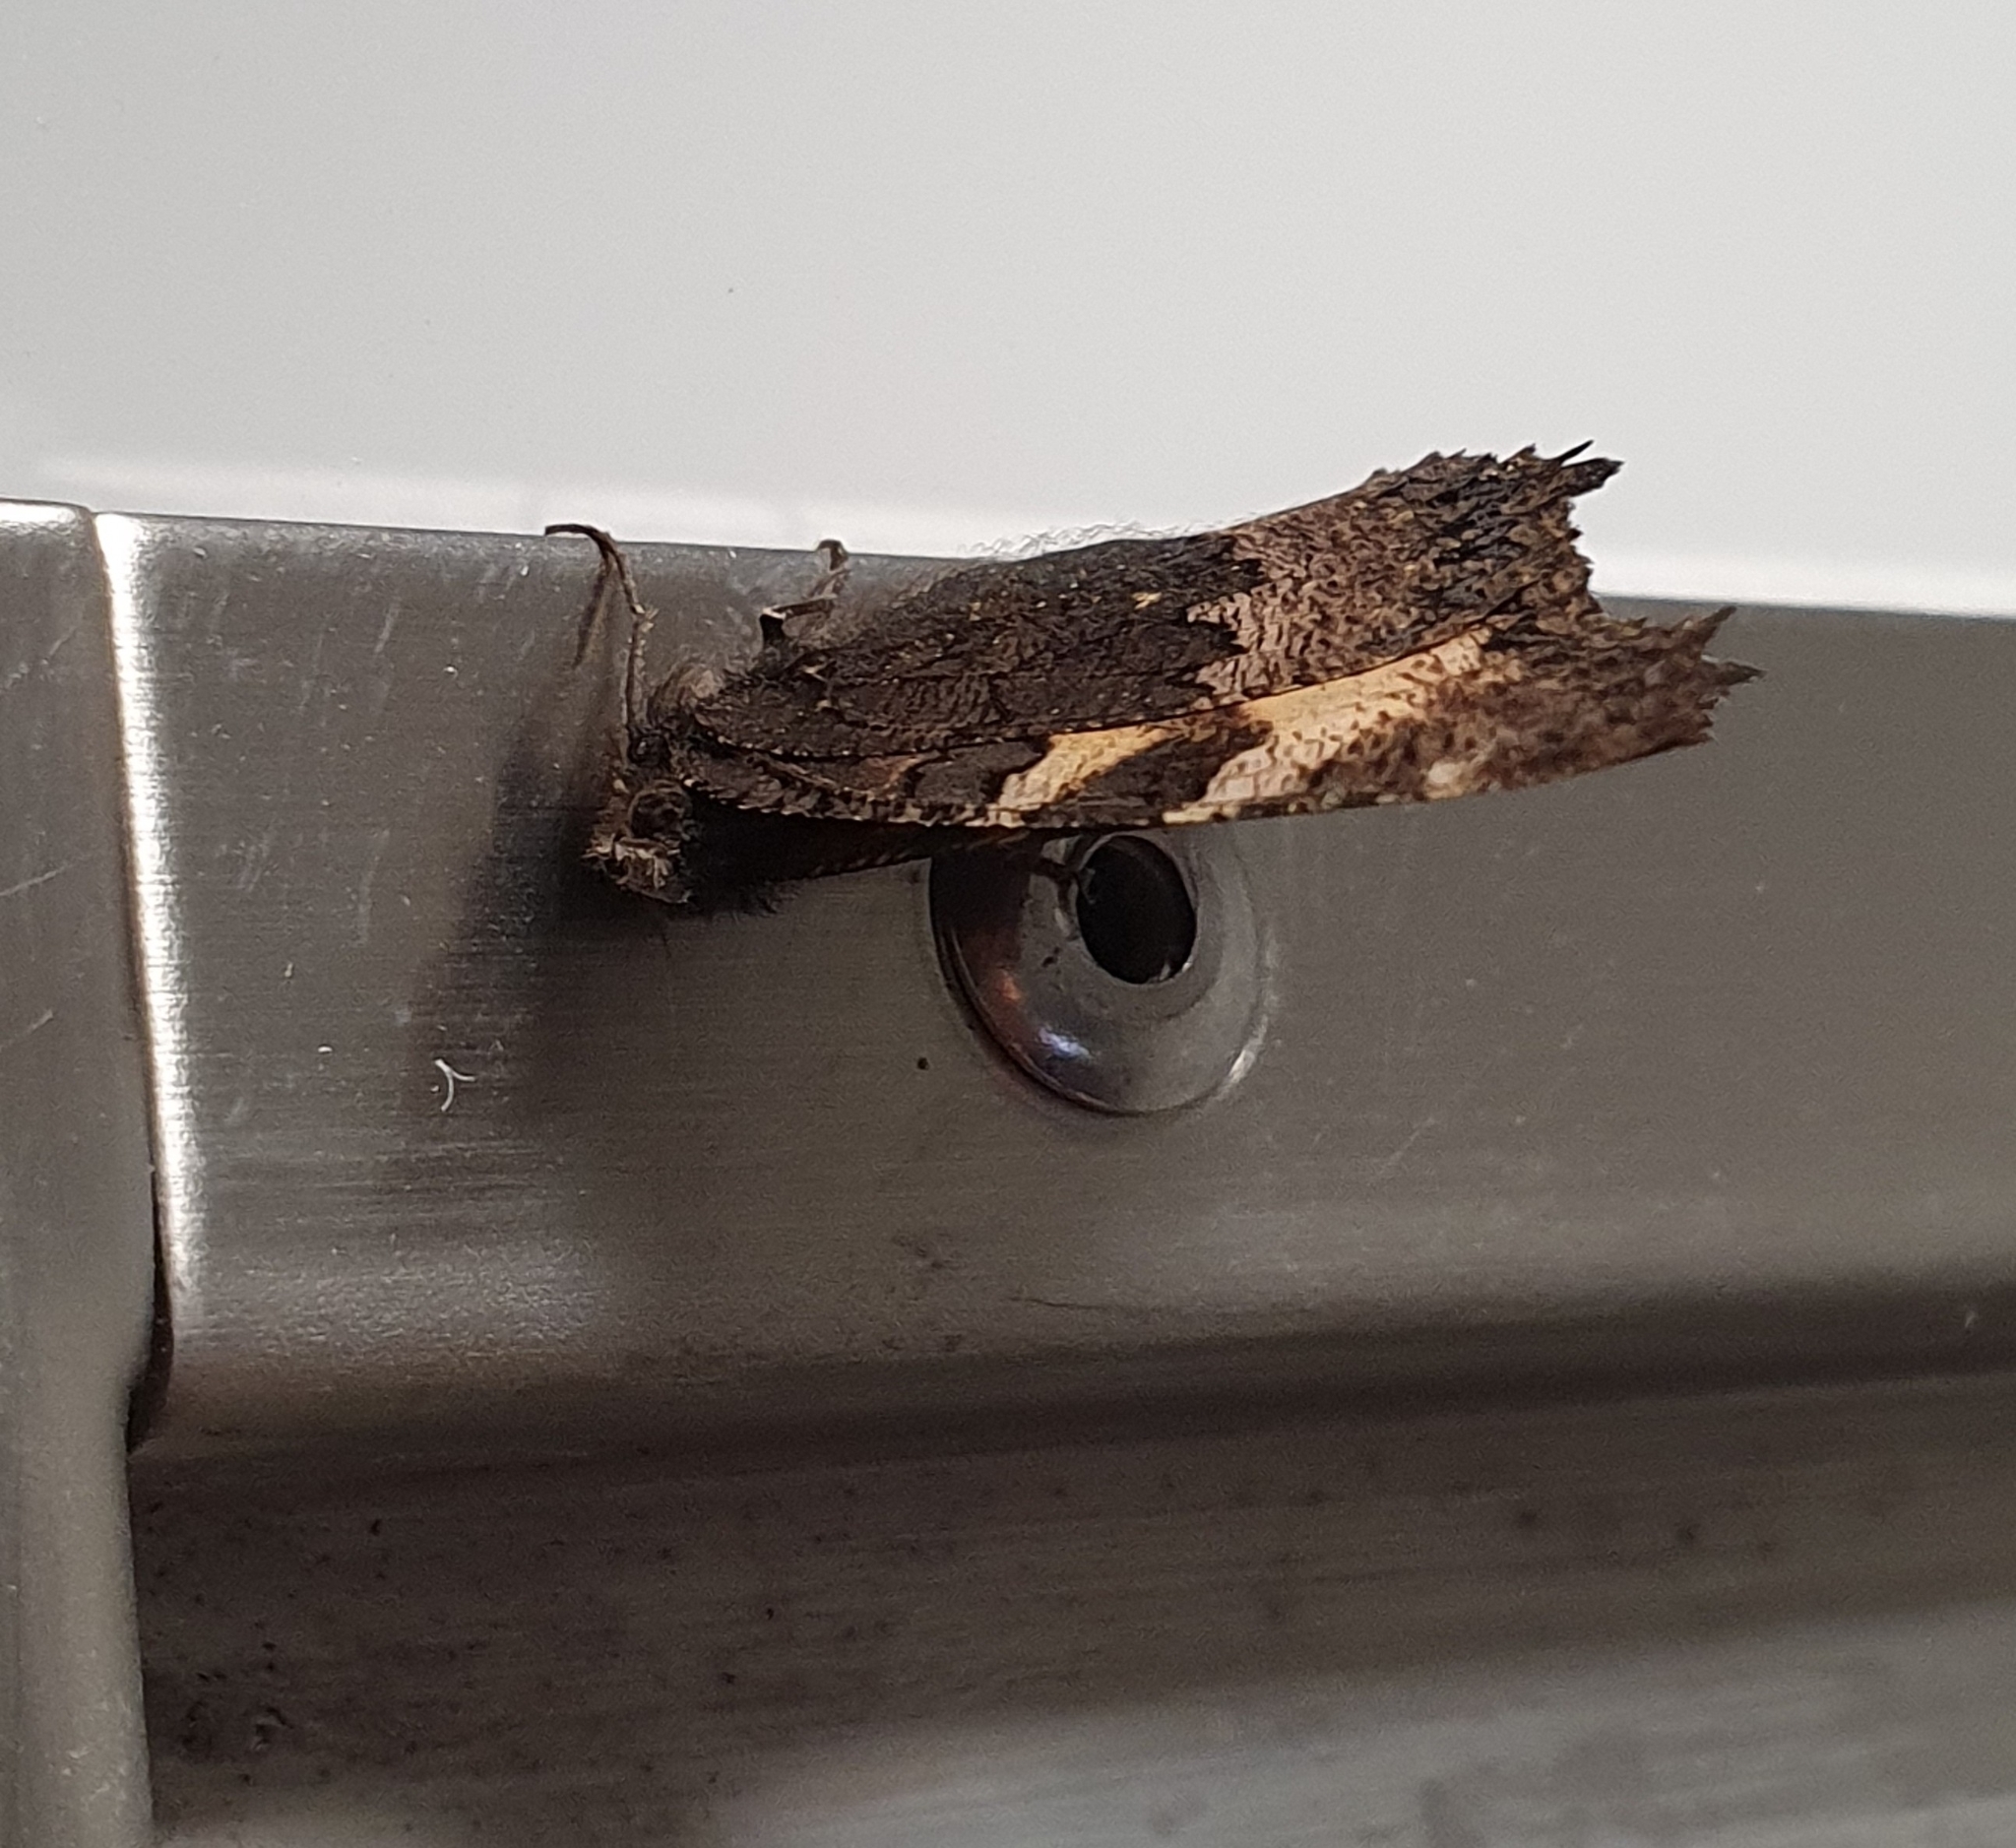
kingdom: Animalia
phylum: Arthropoda
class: Insecta
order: Lepidoptera
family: Nymphalidae
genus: Aglais
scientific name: Aglais urticae
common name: Small tortoiseshell
